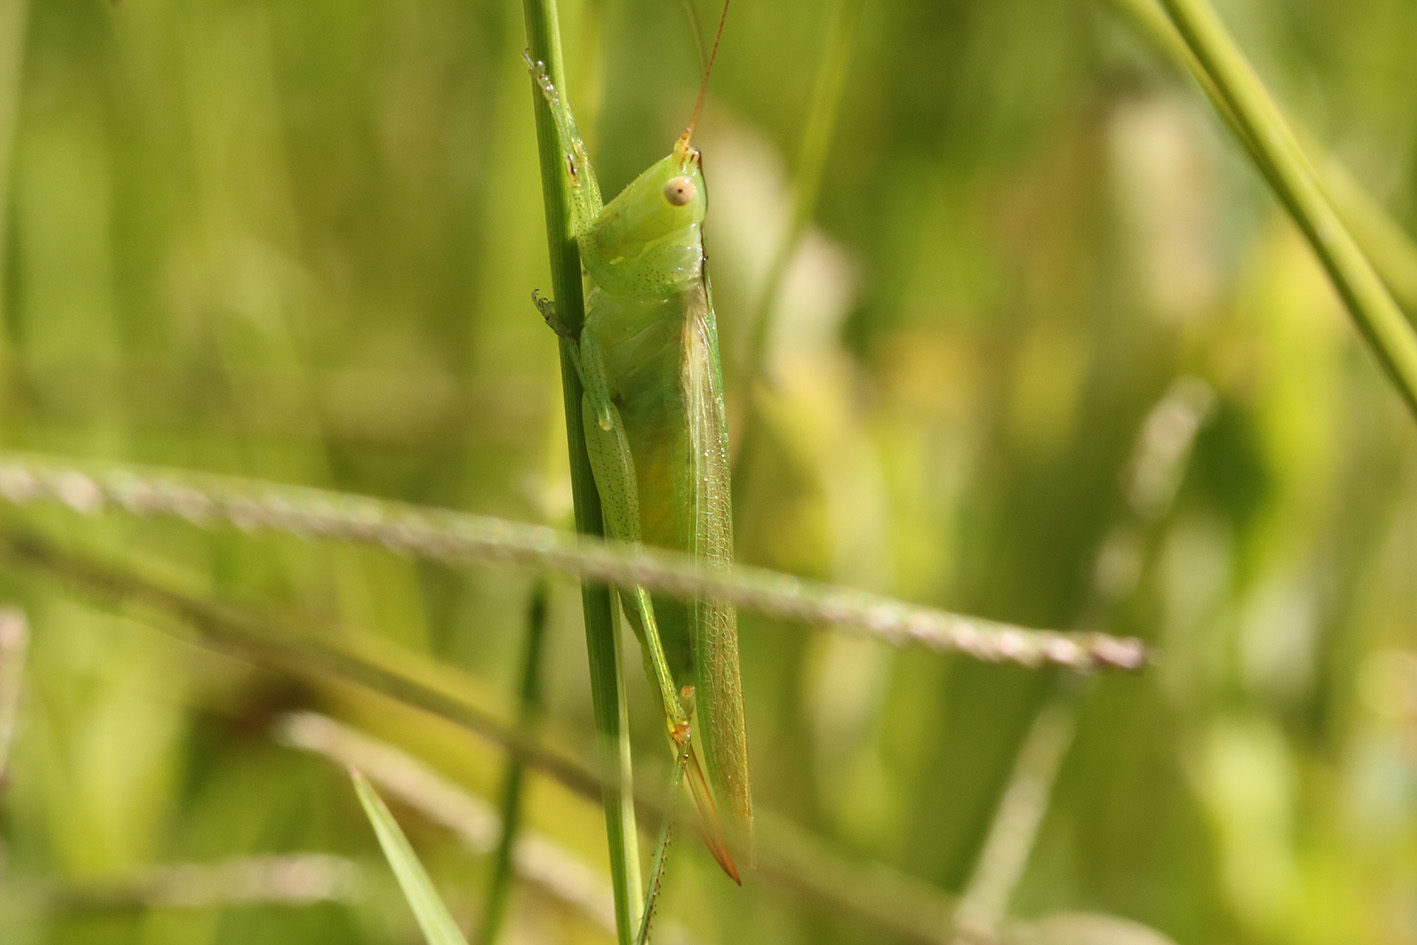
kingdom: Animalia
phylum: Arthropoda
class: Insecta
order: Orthoptera
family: Tettigoniidae
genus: Conocephalus
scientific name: Conocephalus longipes
